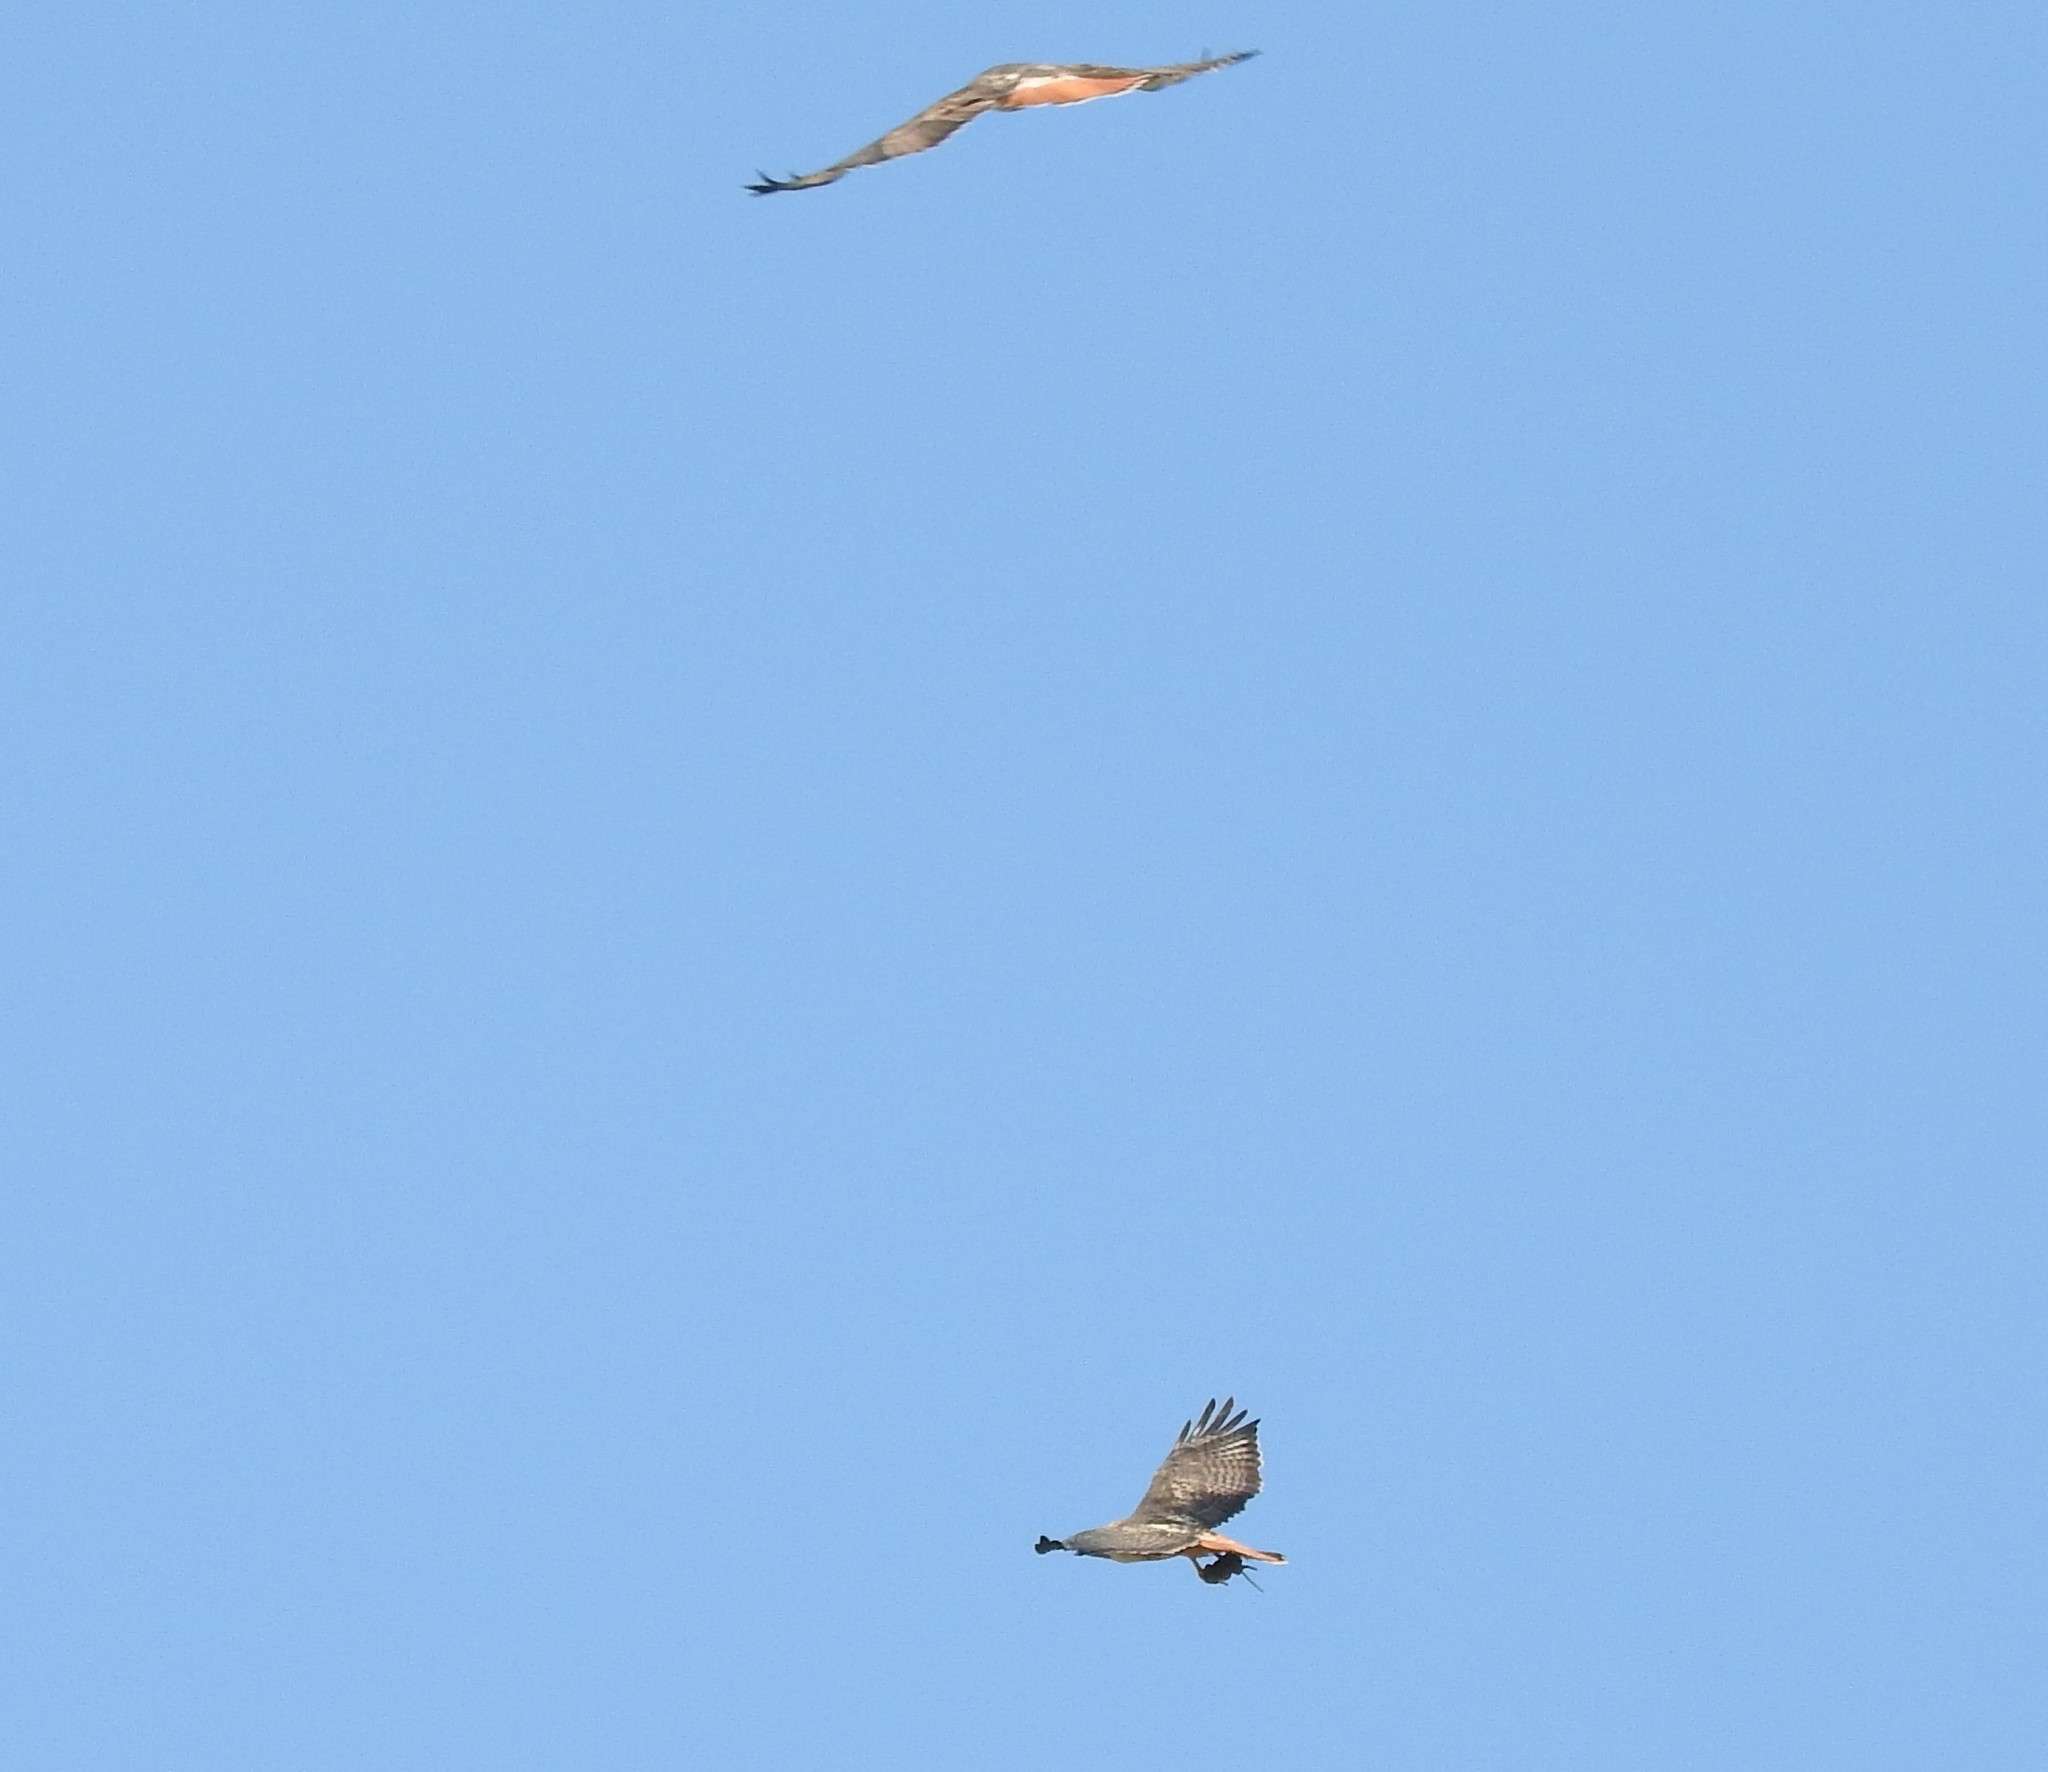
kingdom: Animalia
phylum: Chordata
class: Aves
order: Accipitriformes
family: Accipitridae
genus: Buteo
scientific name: Buteo jamaicensis
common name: Red-tailed hawk
